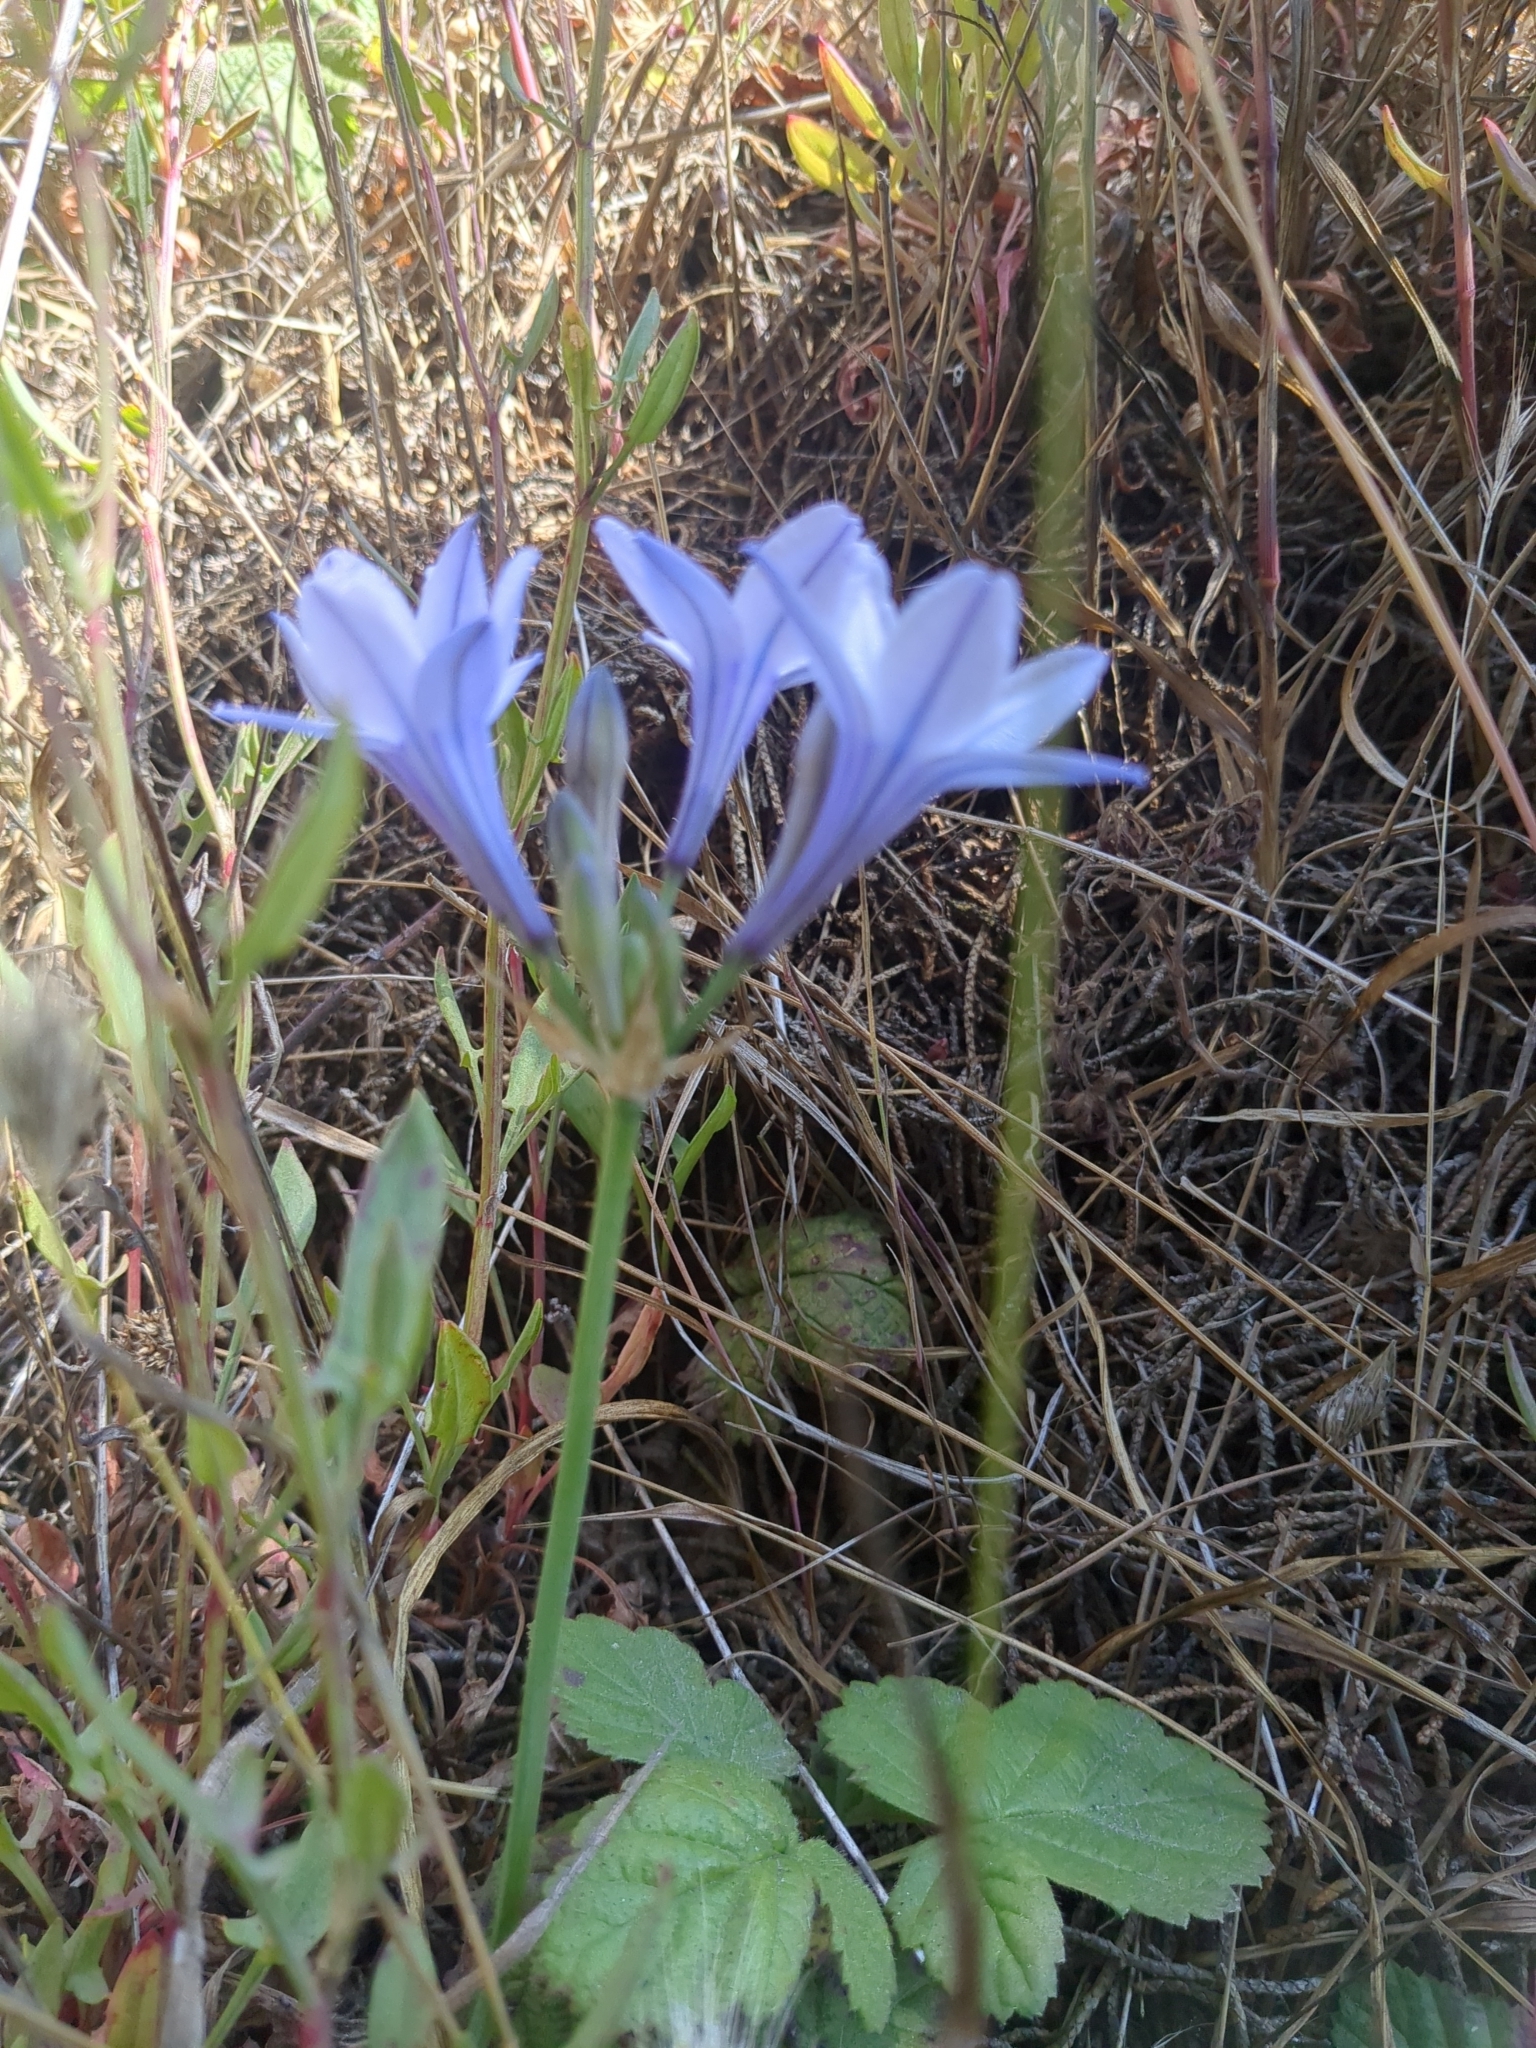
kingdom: Plantae
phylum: Tracheophyta
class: Liliopsida
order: Asparagales
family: Asparagaceae
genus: Triteleia
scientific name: Triteleia laxa
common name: Triplet-lily
